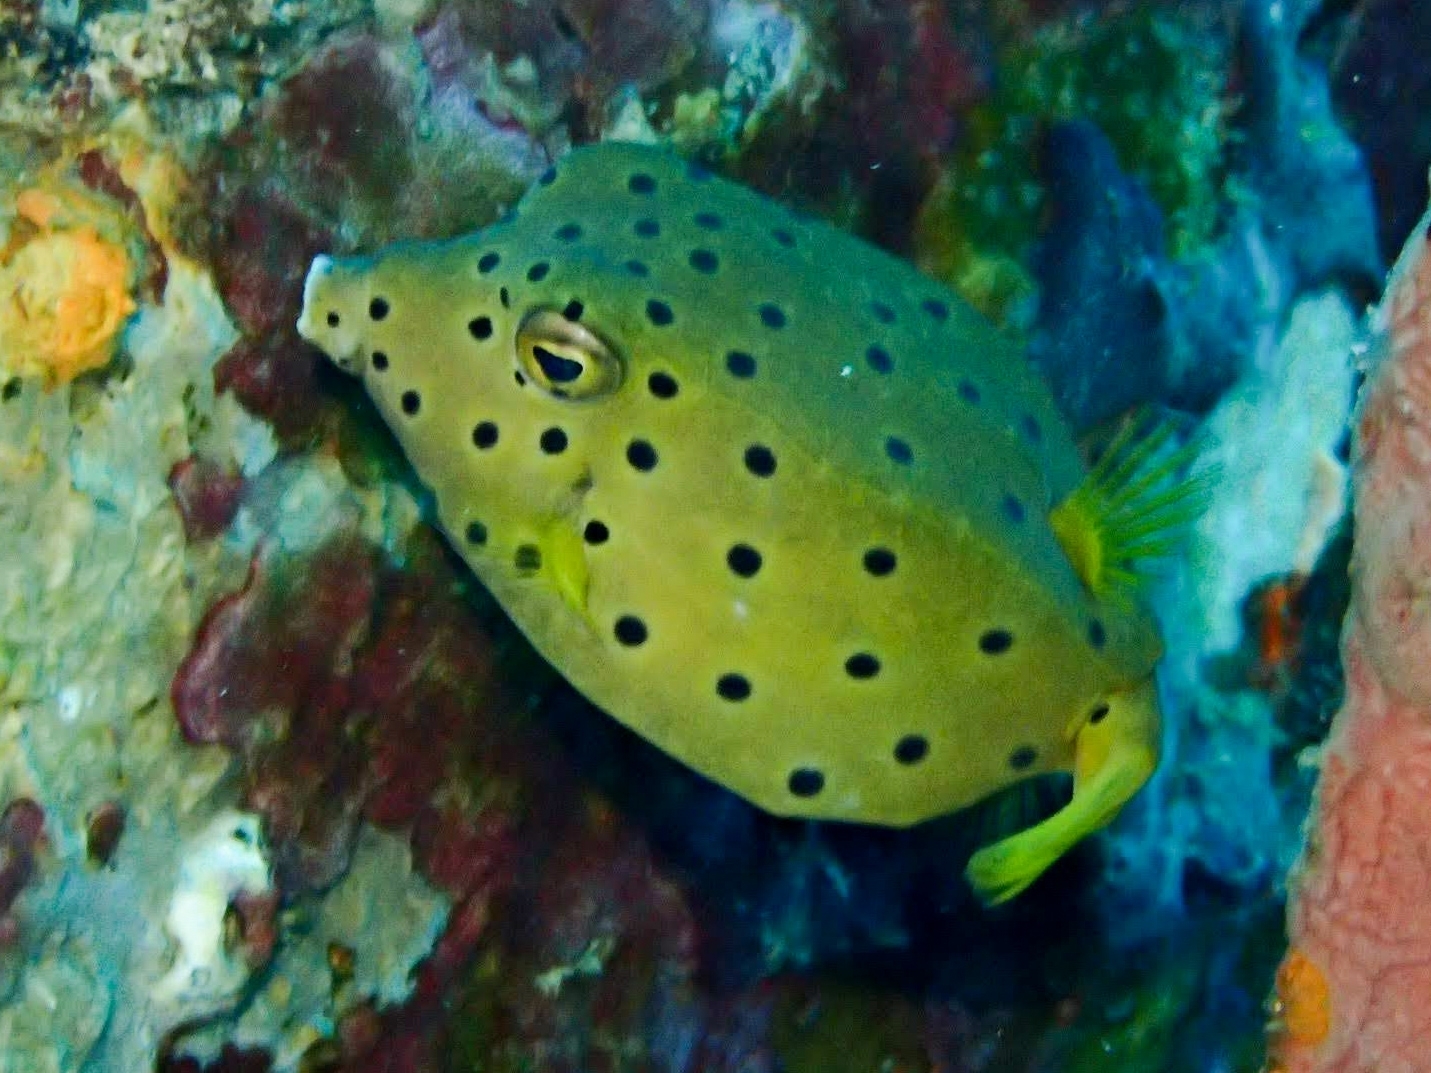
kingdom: Animalia
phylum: Chordata
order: Tetraodontiformes
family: Ostraciidae
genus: Ostracion
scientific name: Ostracion cubicus
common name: Cube trunkfish
